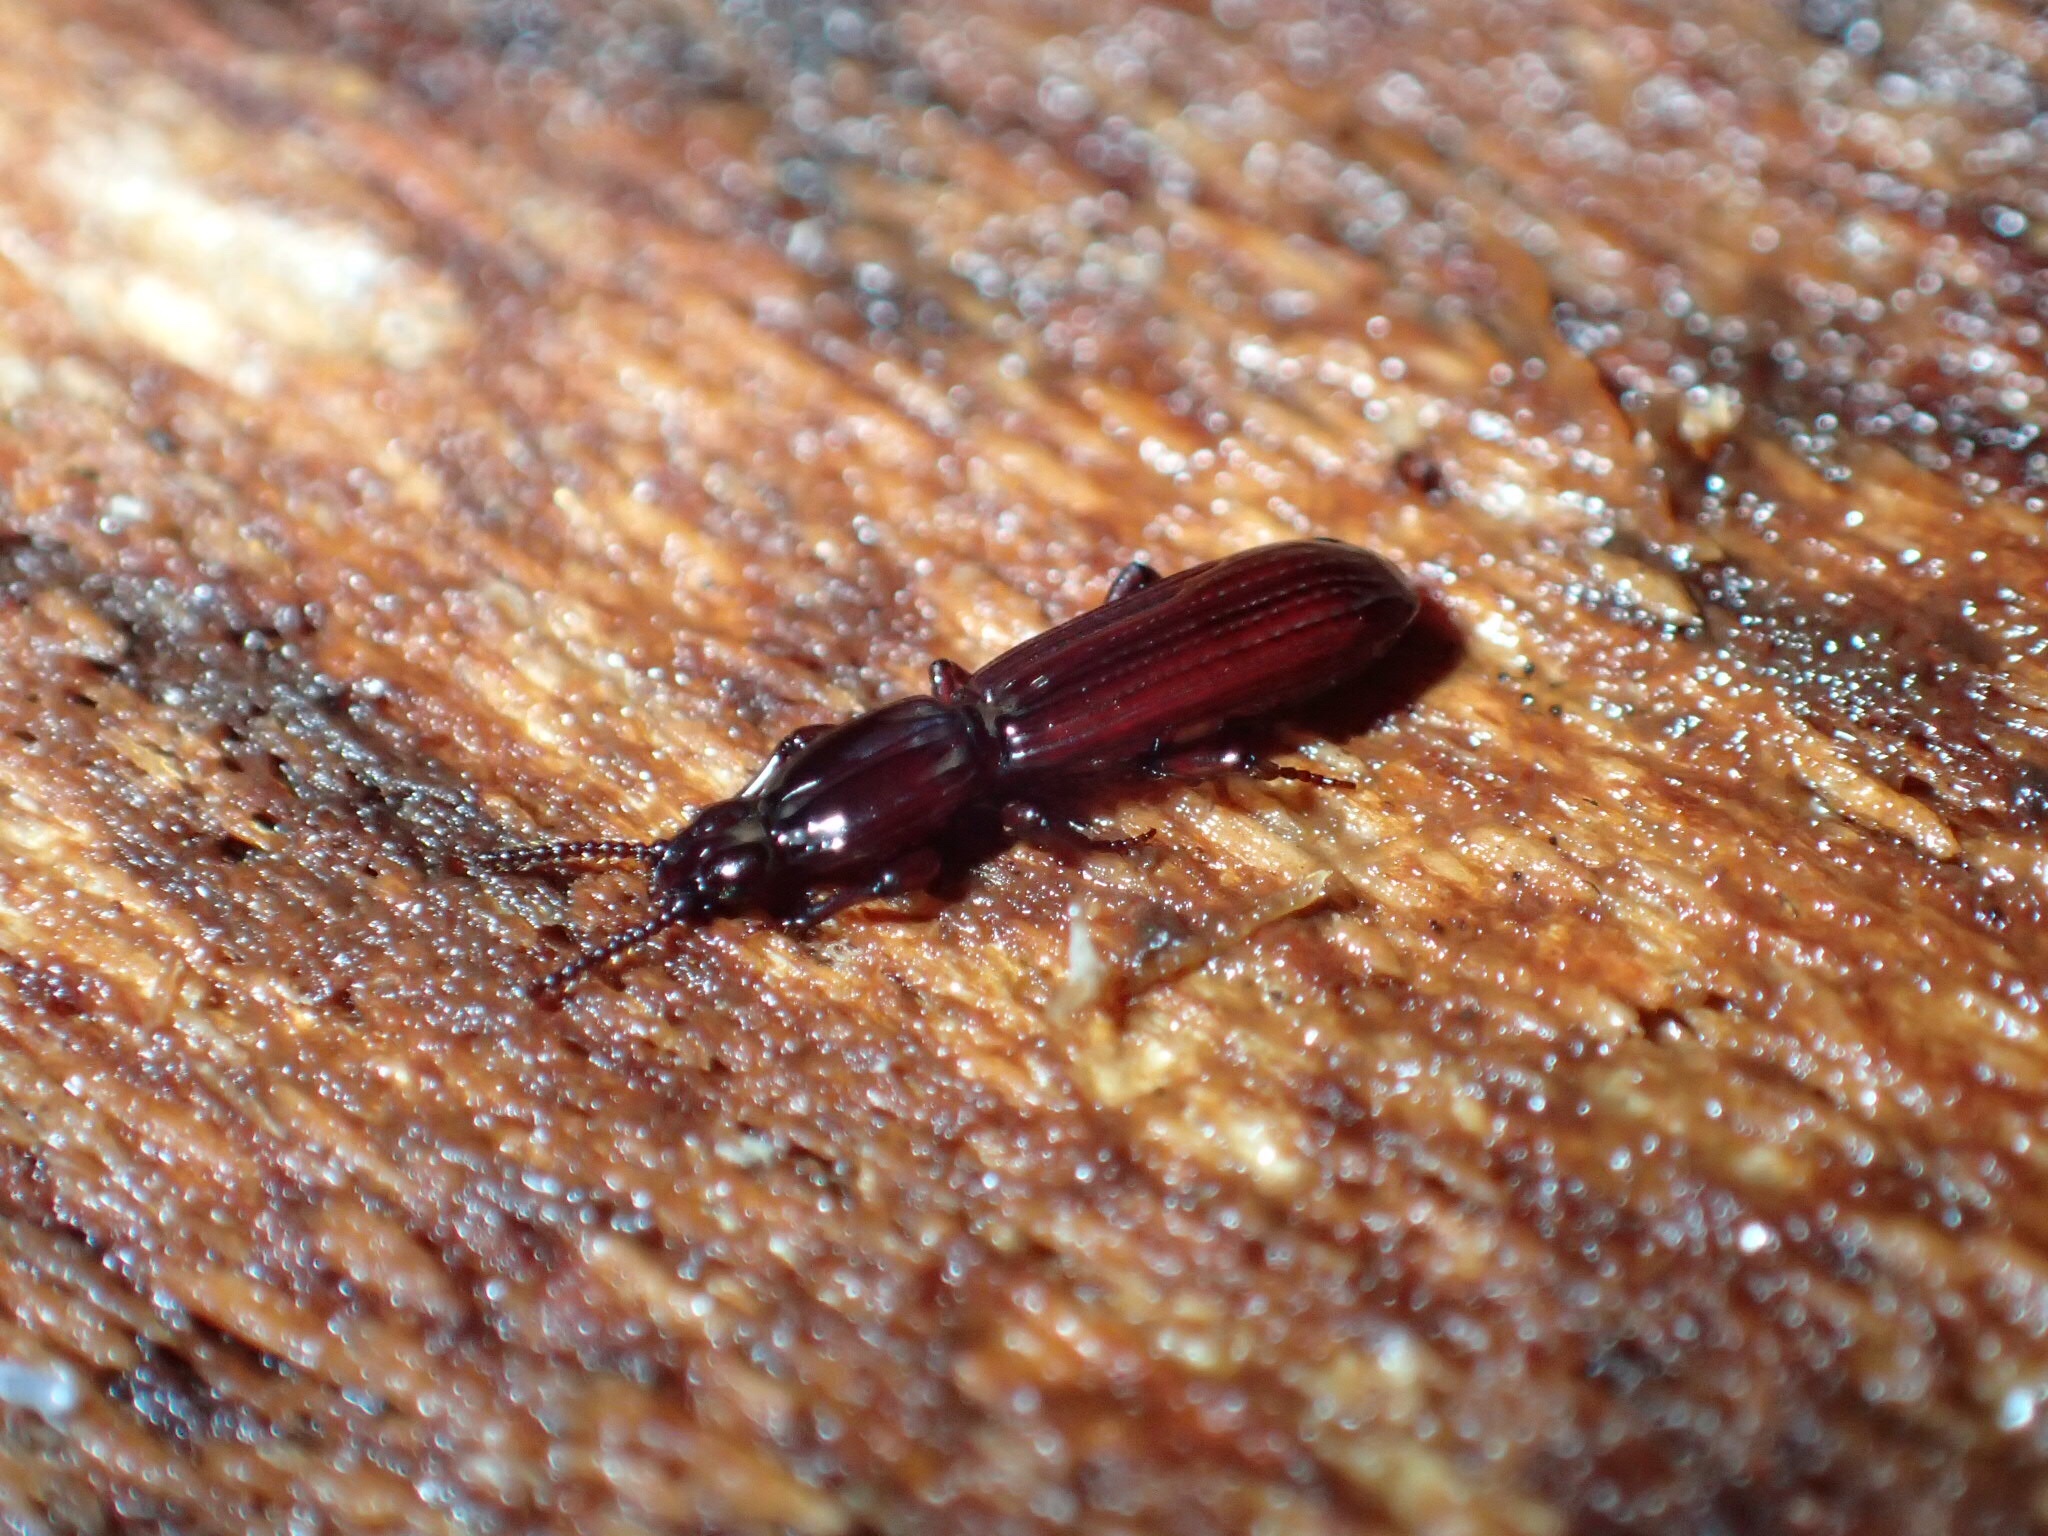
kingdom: Animalia
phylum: Arthropoda
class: Insecta
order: Coleoptera
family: Carabidae
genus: Omoglymmius
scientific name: Omoglymmius americanus
